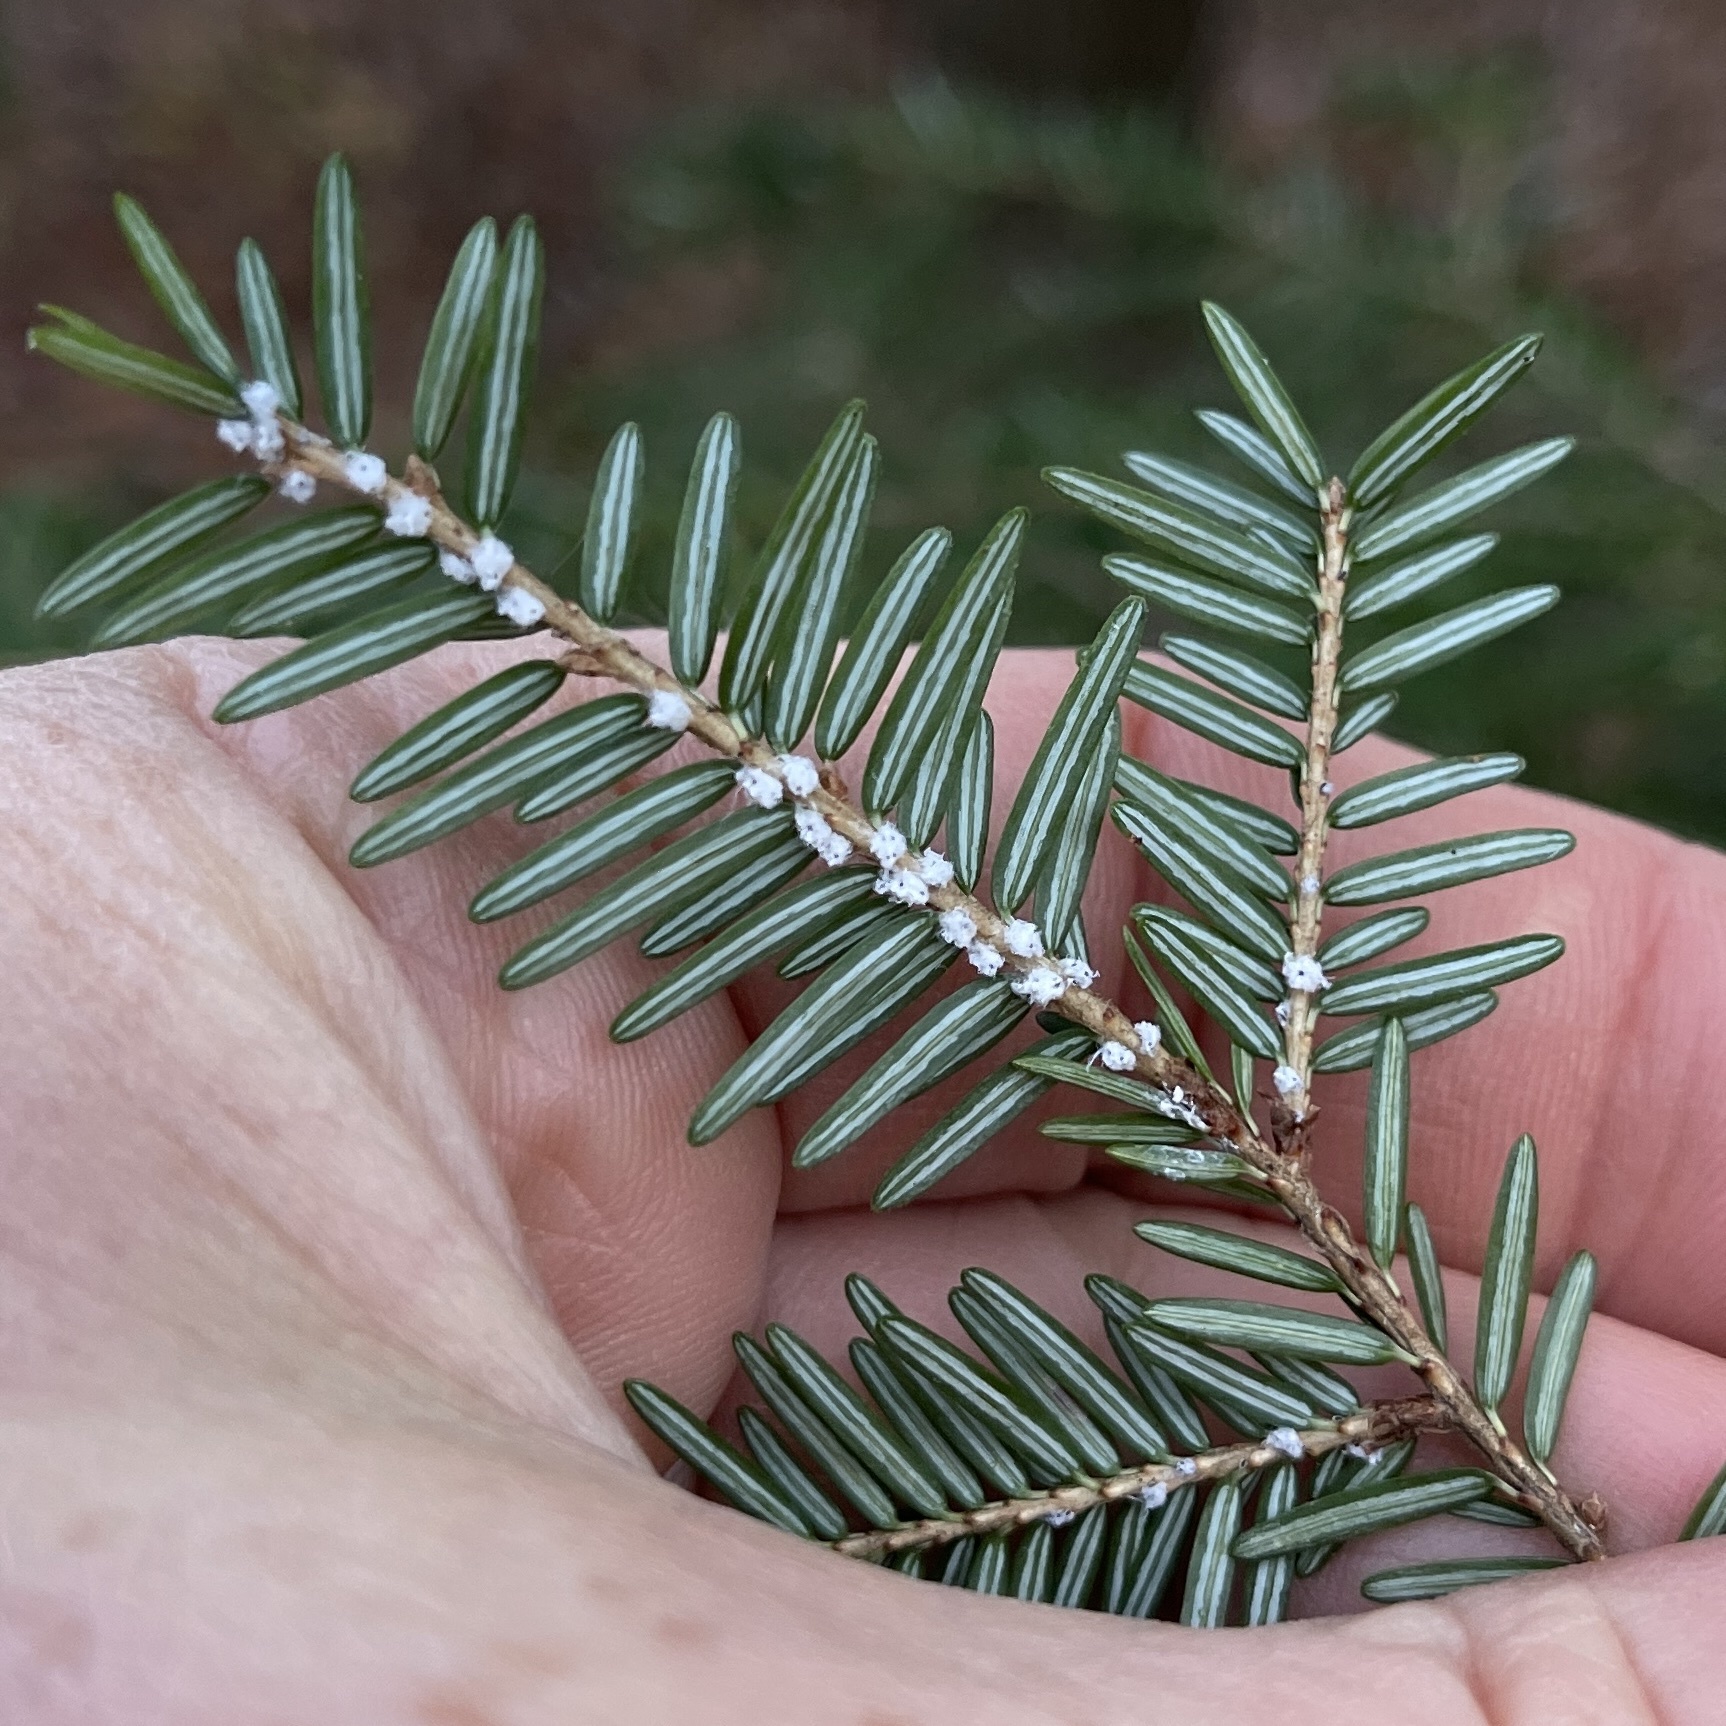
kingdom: Animalia
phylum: Arthropoda
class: Insecta
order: Hemiptera
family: Adelgidae
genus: Adelges
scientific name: Adelges tsugae
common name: Hemlock woolly adelgid
